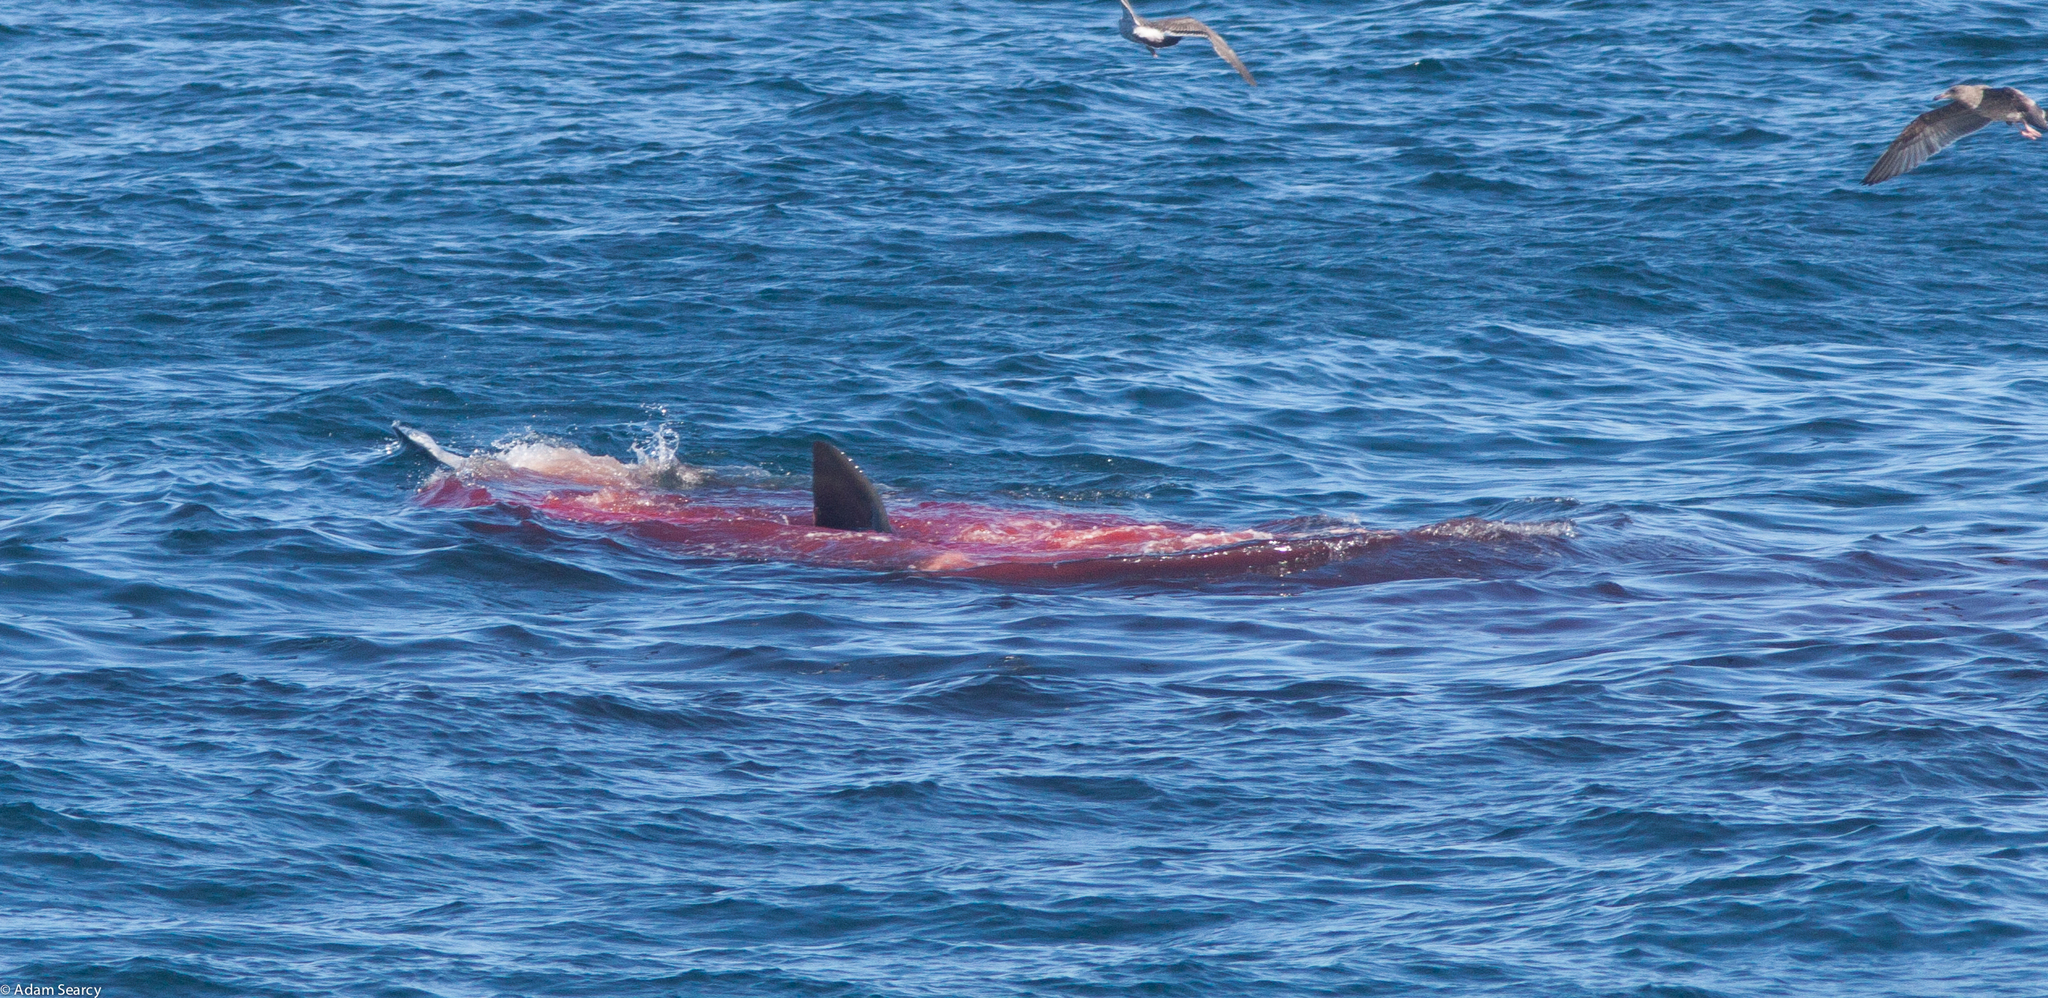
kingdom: Animalia
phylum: Chordata
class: Elasmobranchii
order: Lamniformes
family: Lamnidae
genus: Carcharodon
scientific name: Carcharodon carcharias
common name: Great white shark
